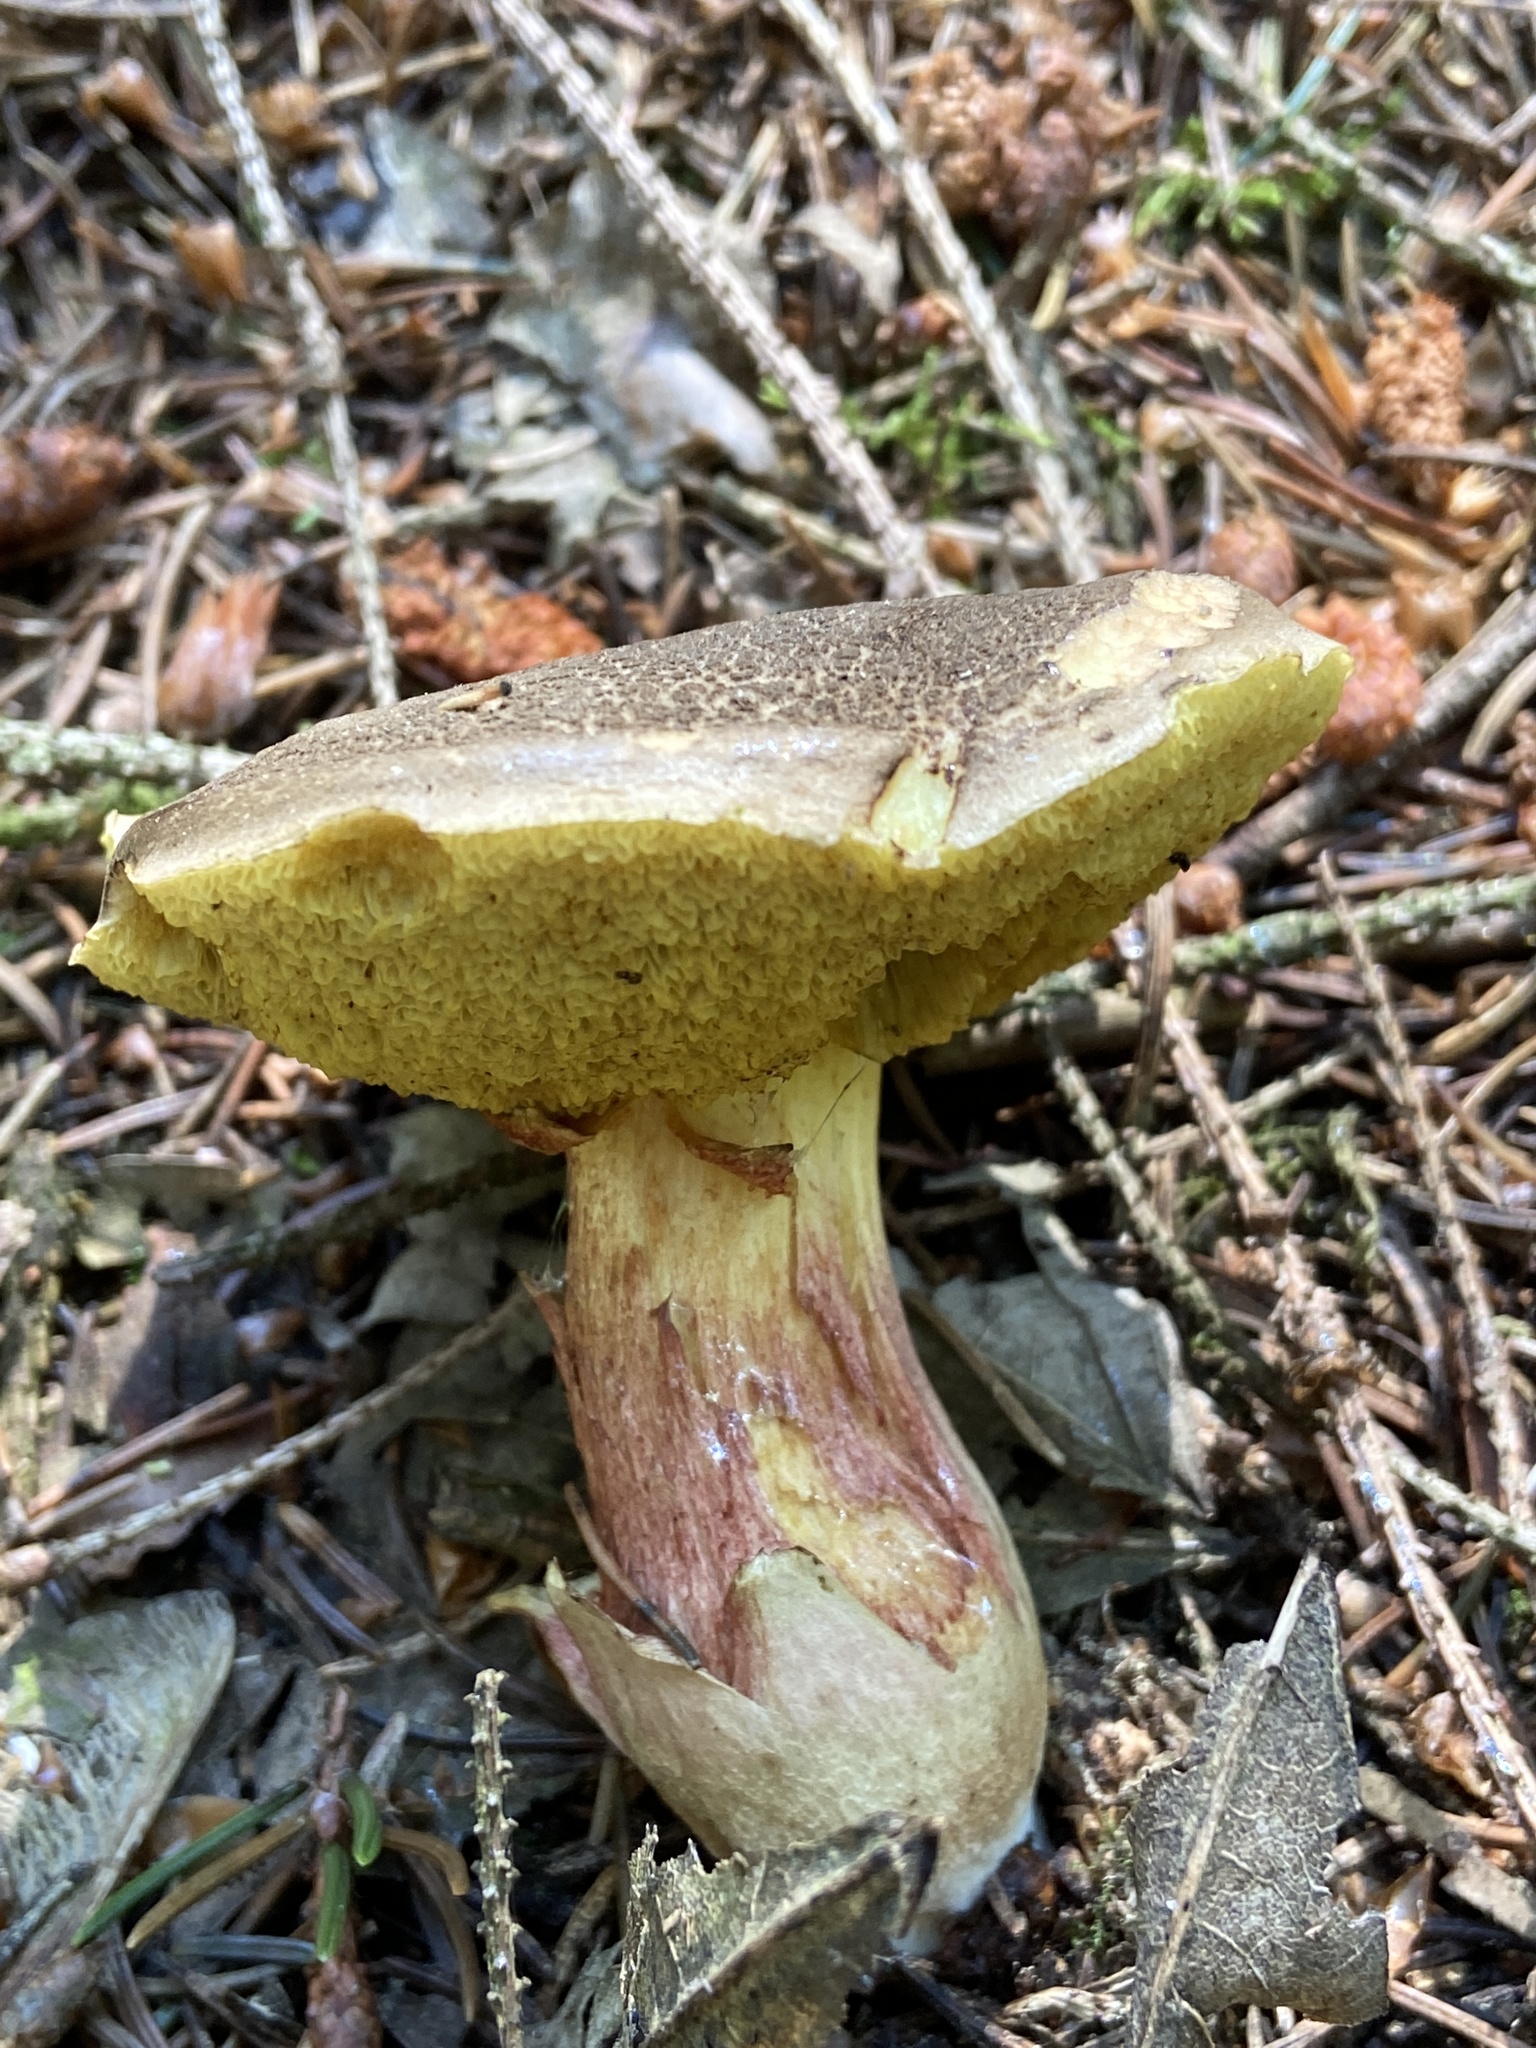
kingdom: Fungi
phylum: Basidiomycota
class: Agaricomycetes
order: Boletales
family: Boletaceae
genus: Xerocomellus
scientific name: Xerocomellus chrysenteron
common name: Red-cracking bolete
